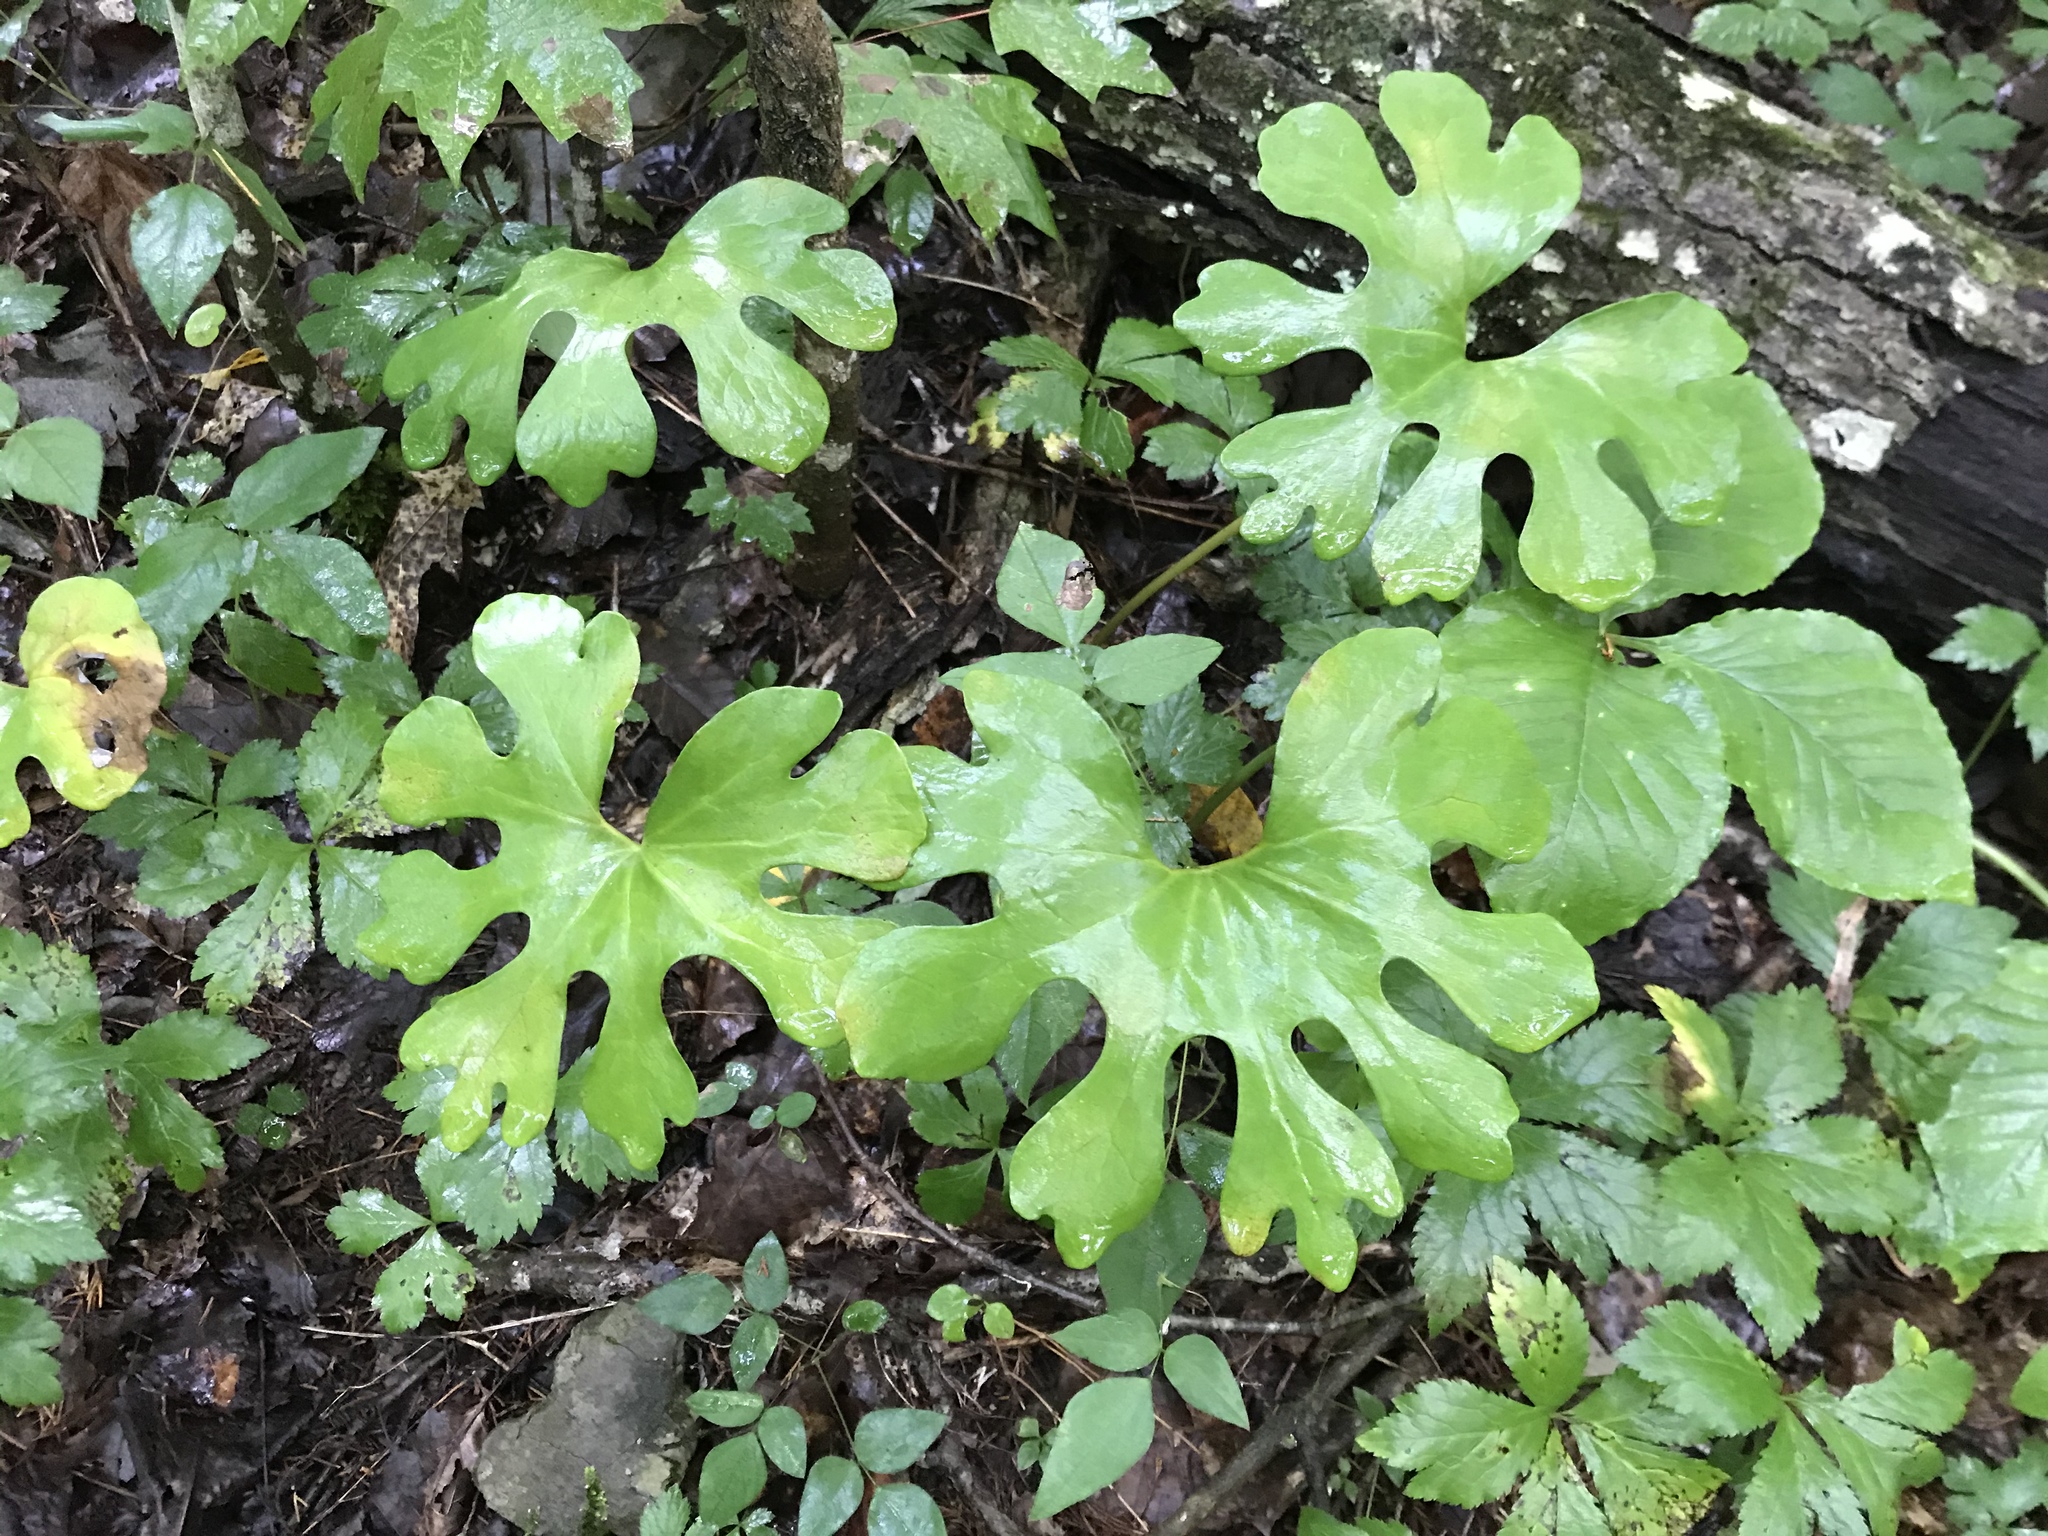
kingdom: Plantae
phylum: Tracheophyta
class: Magnoliopsida
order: Ranunculales
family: Papaveraceae
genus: Sanguinaria
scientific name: Sanguinaria canadensis
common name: Bloodroot
